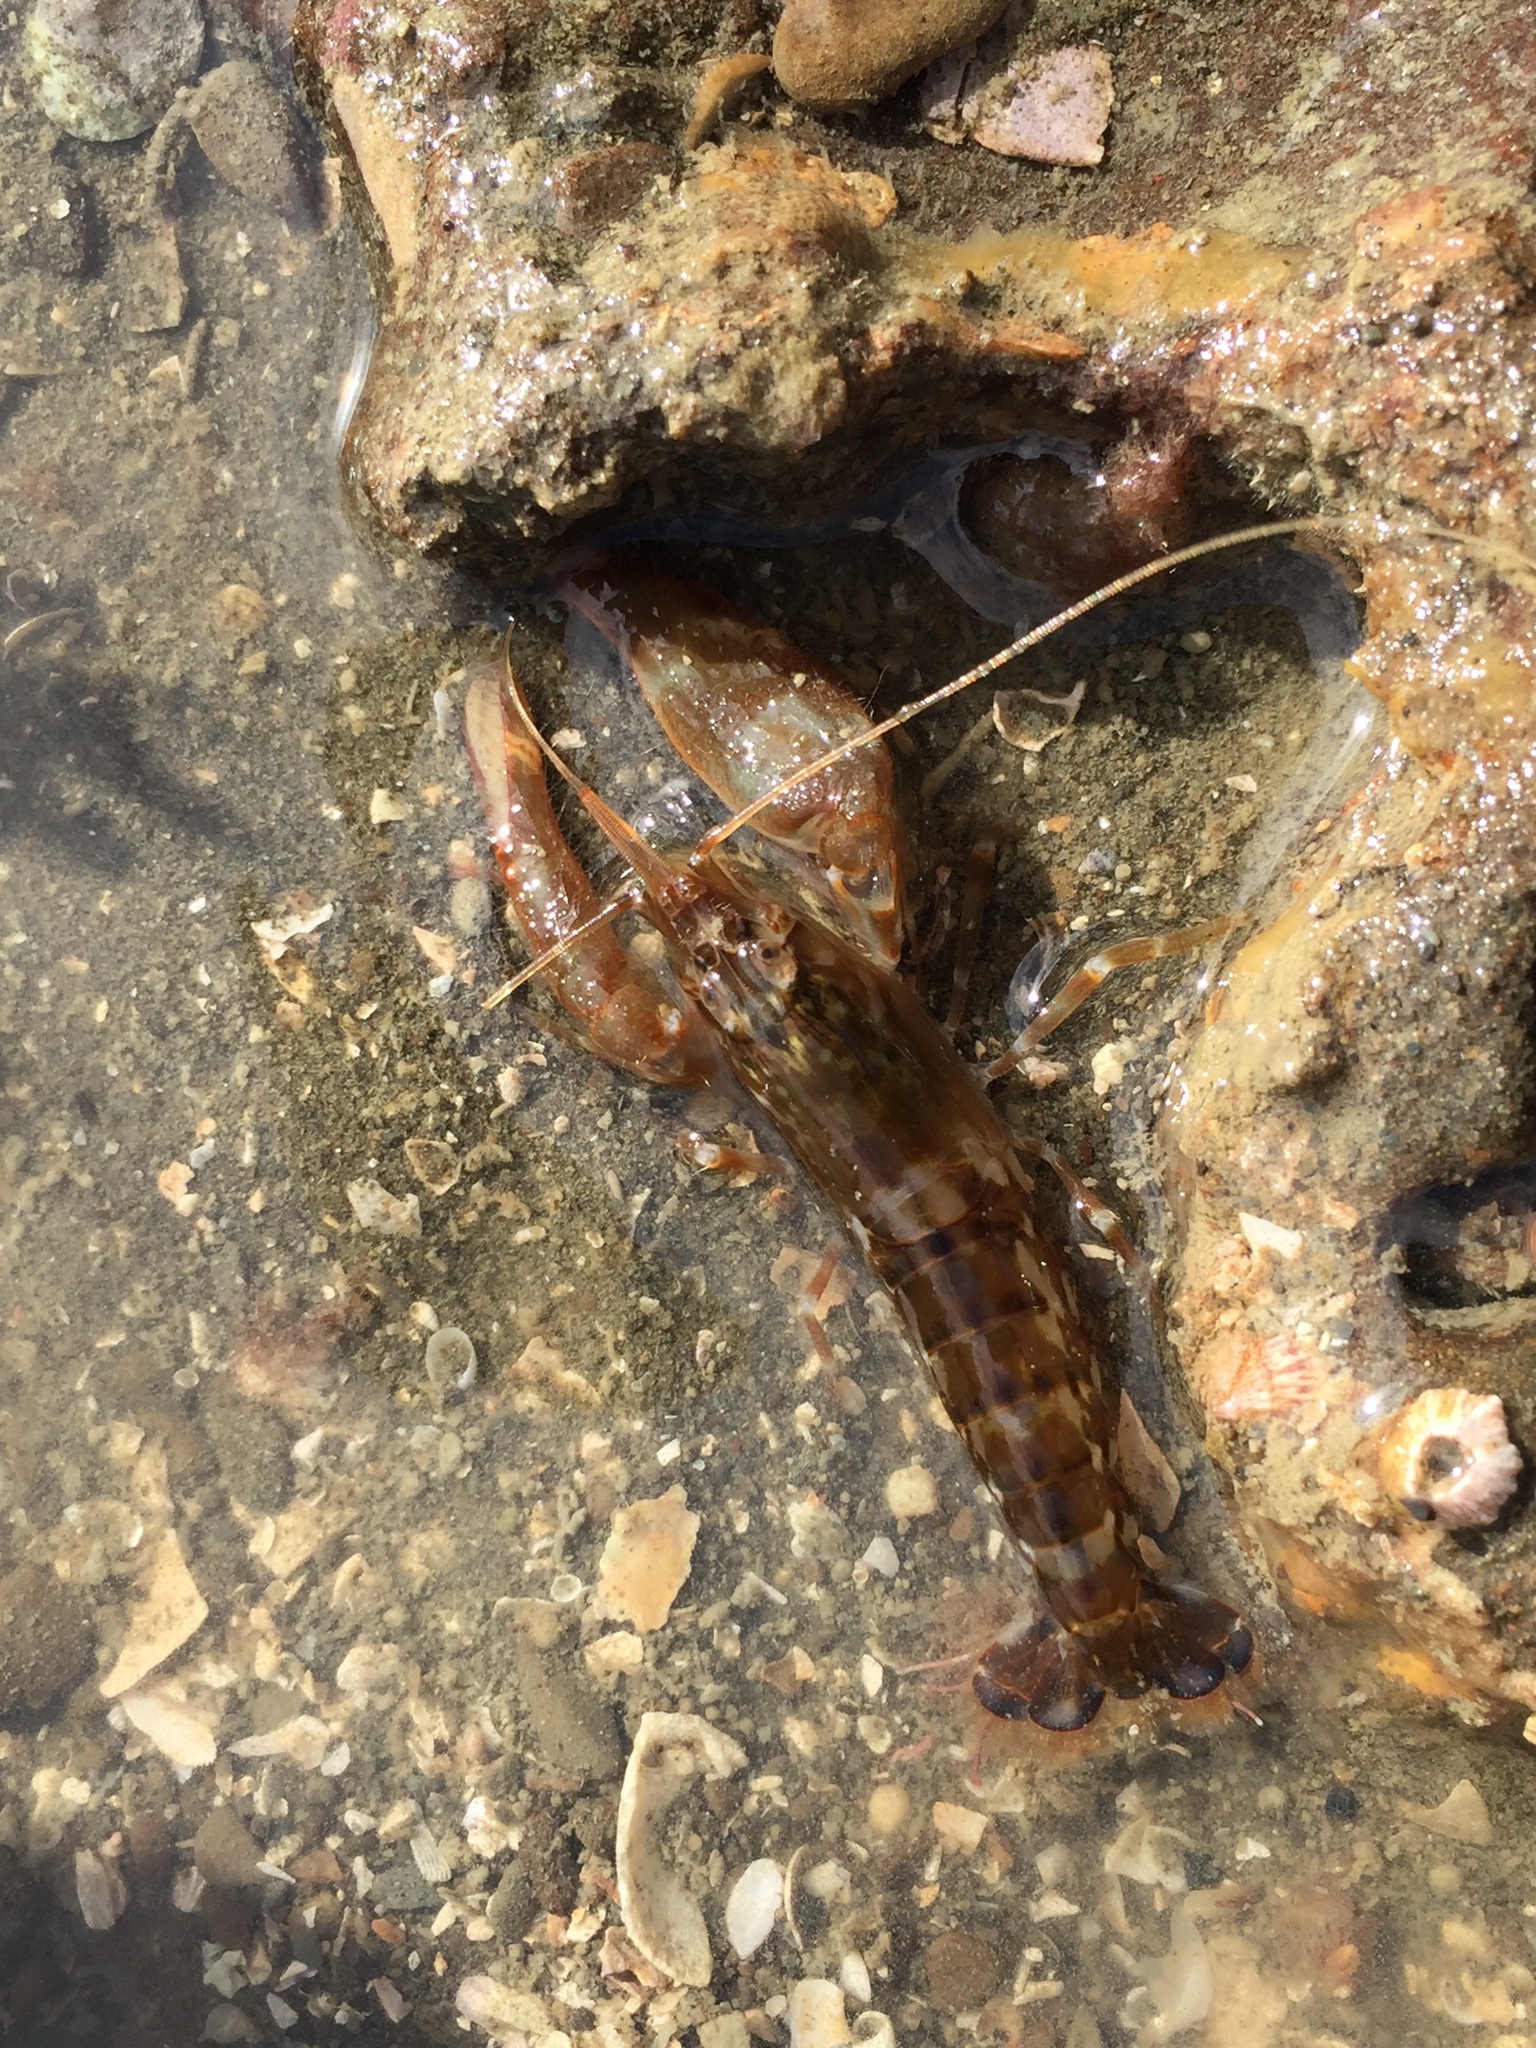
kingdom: Animalia
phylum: Arthropoda
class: Malacostraca
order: Decapoda
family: Alpheidae
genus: Alpheus
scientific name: Alpheus novaezealandiae
